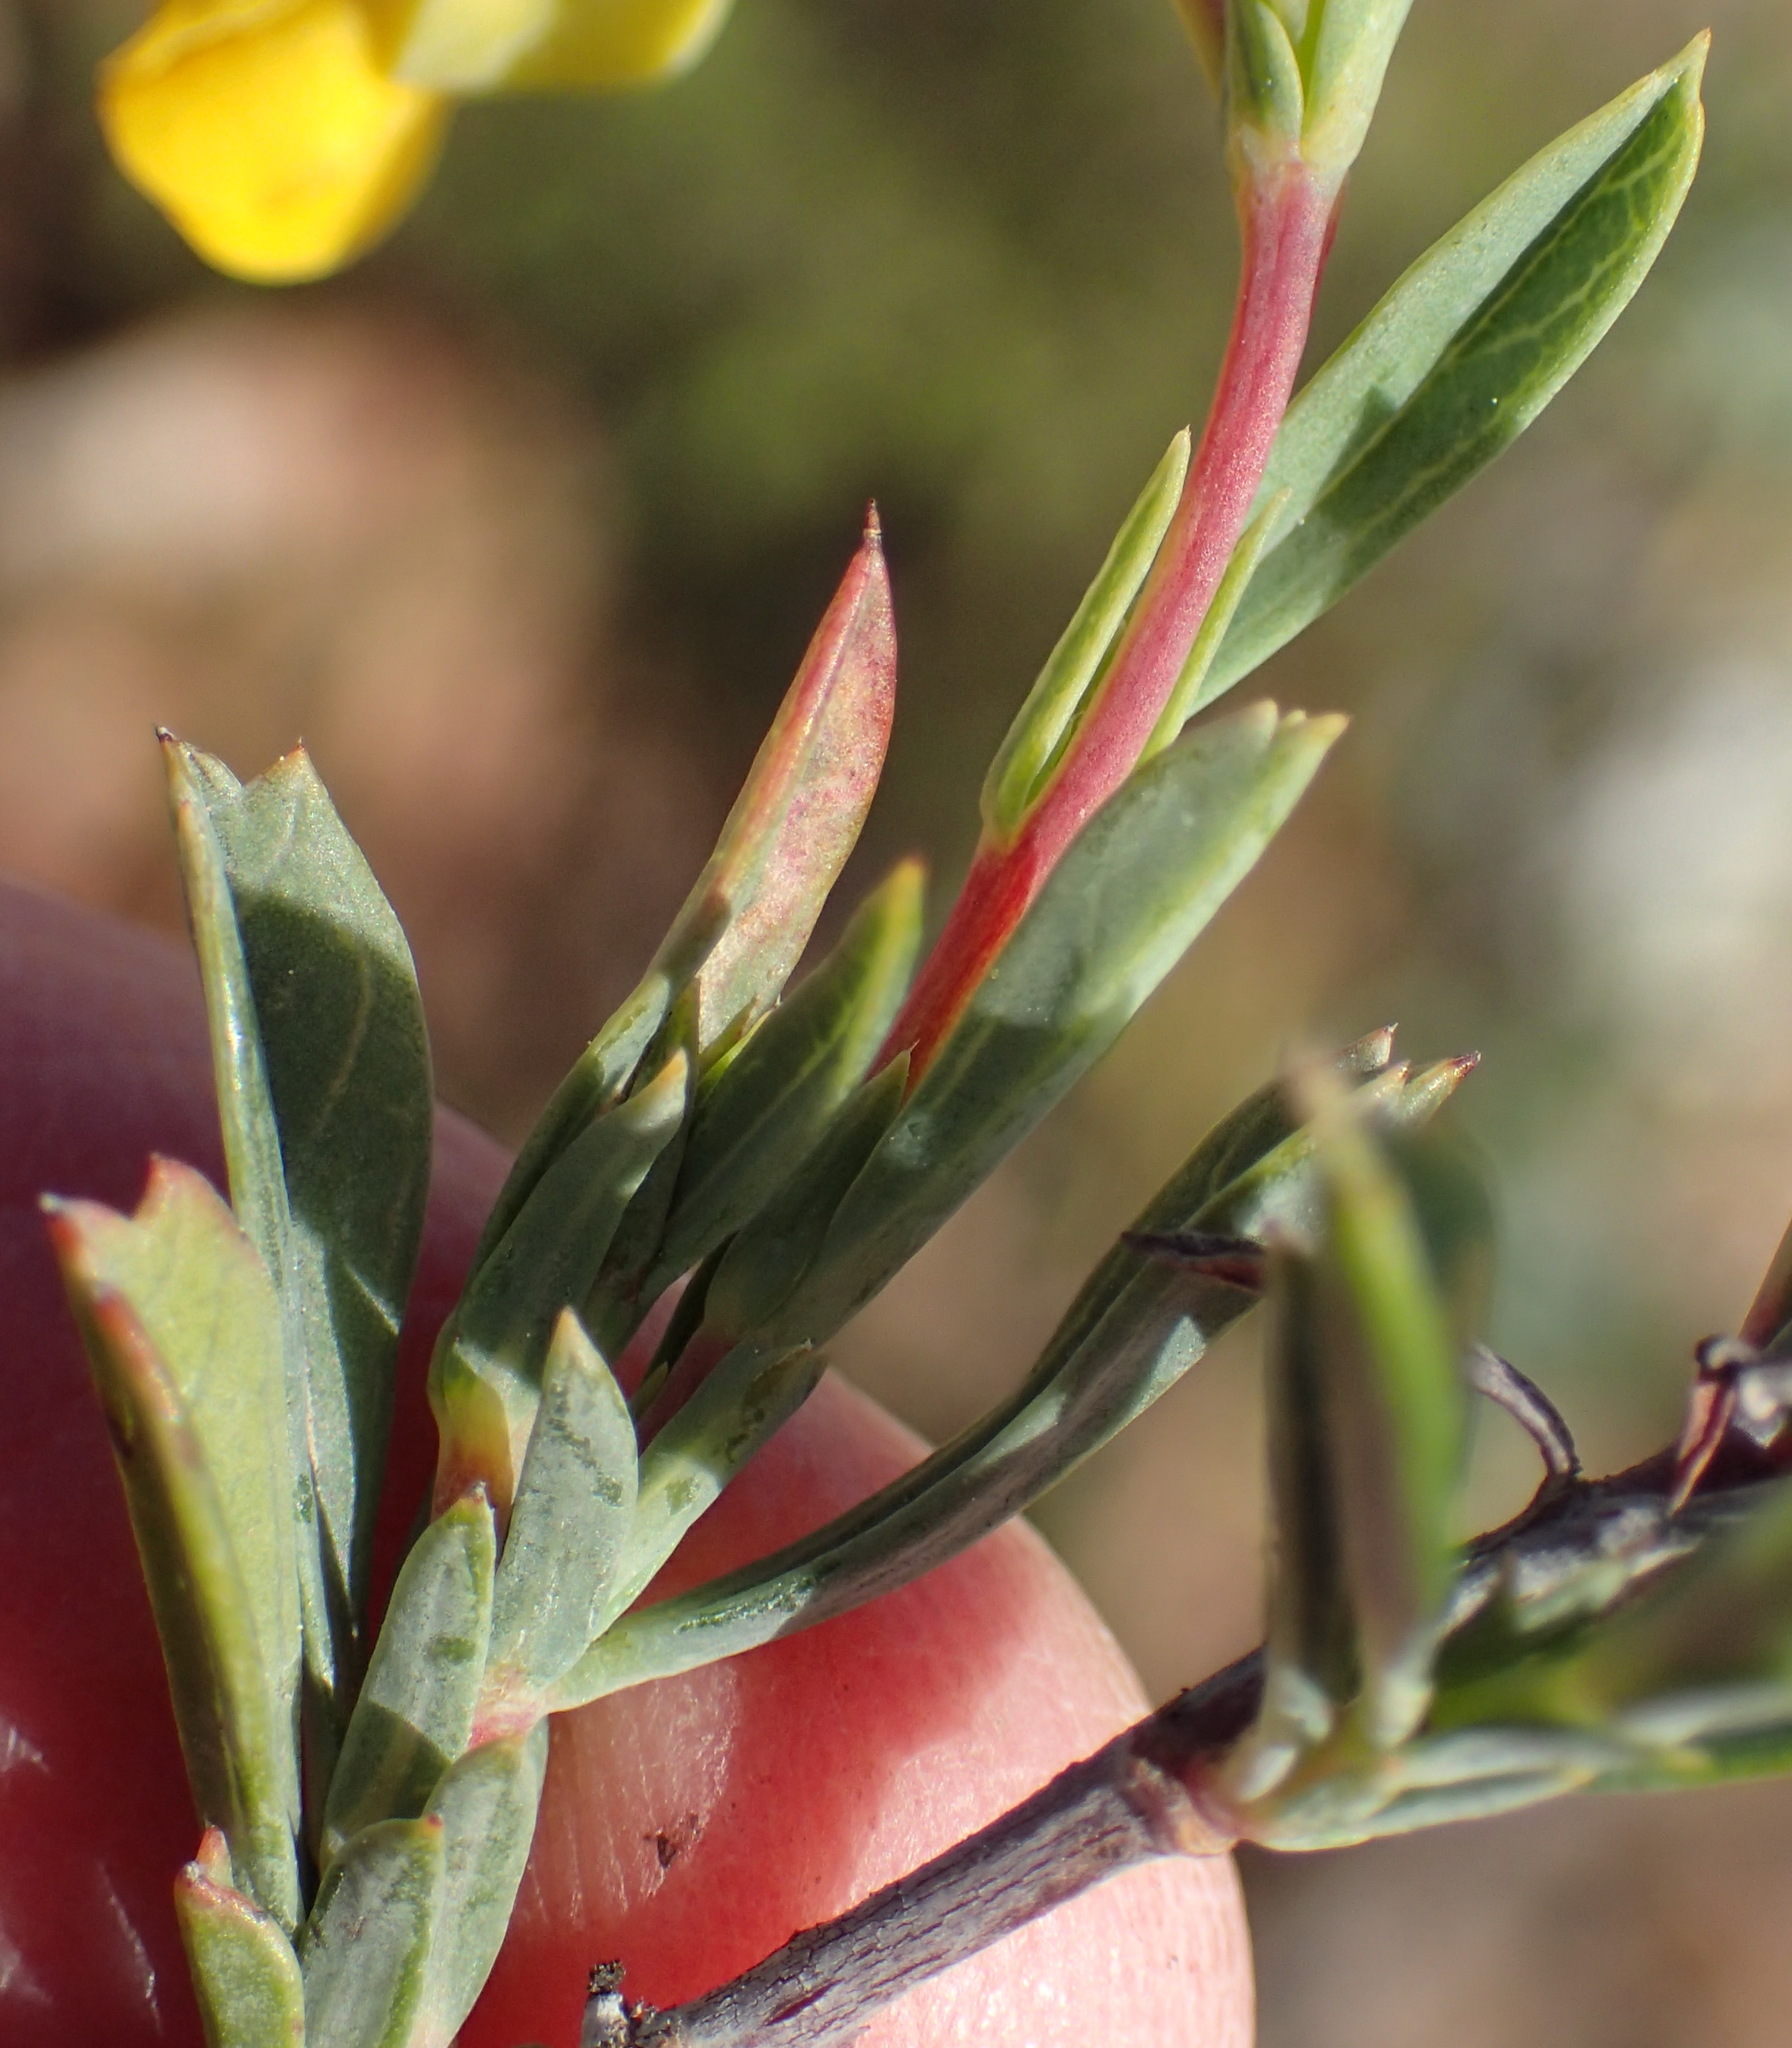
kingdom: Plantae
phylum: Tracheophyta
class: Magnoliopsida
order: Malvales
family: Malvaceae
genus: Hermannia
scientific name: Hermannia
